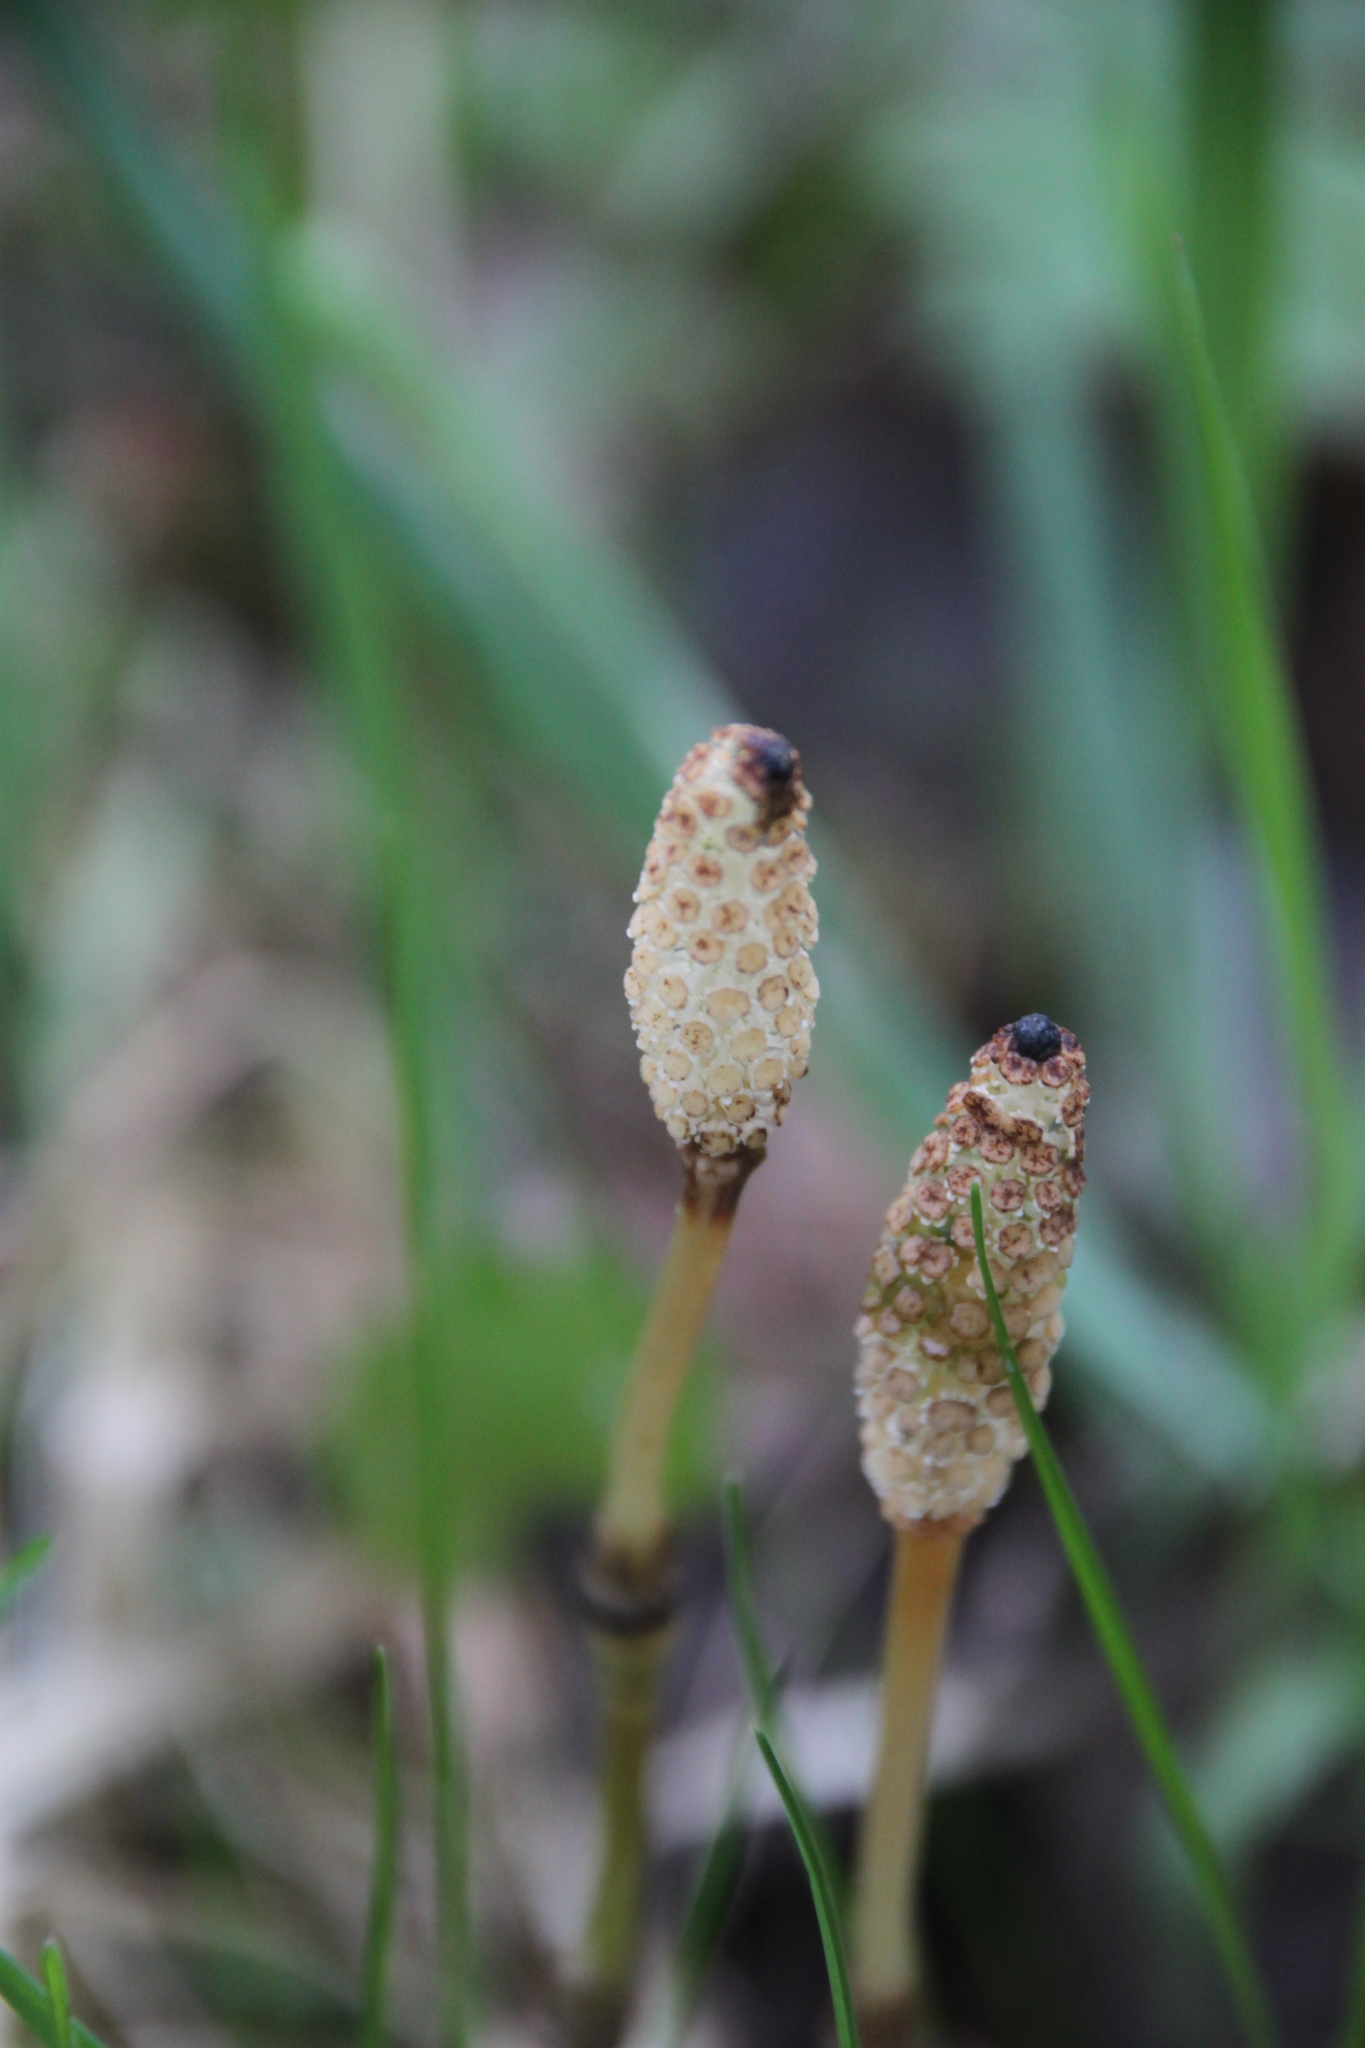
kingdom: Plantae
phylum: Tracheophyta
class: Polypodiopsida
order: Equisetales
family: Equisetaceae
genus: Equisetum
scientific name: Equisetum pratense
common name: Meadow horsetail
